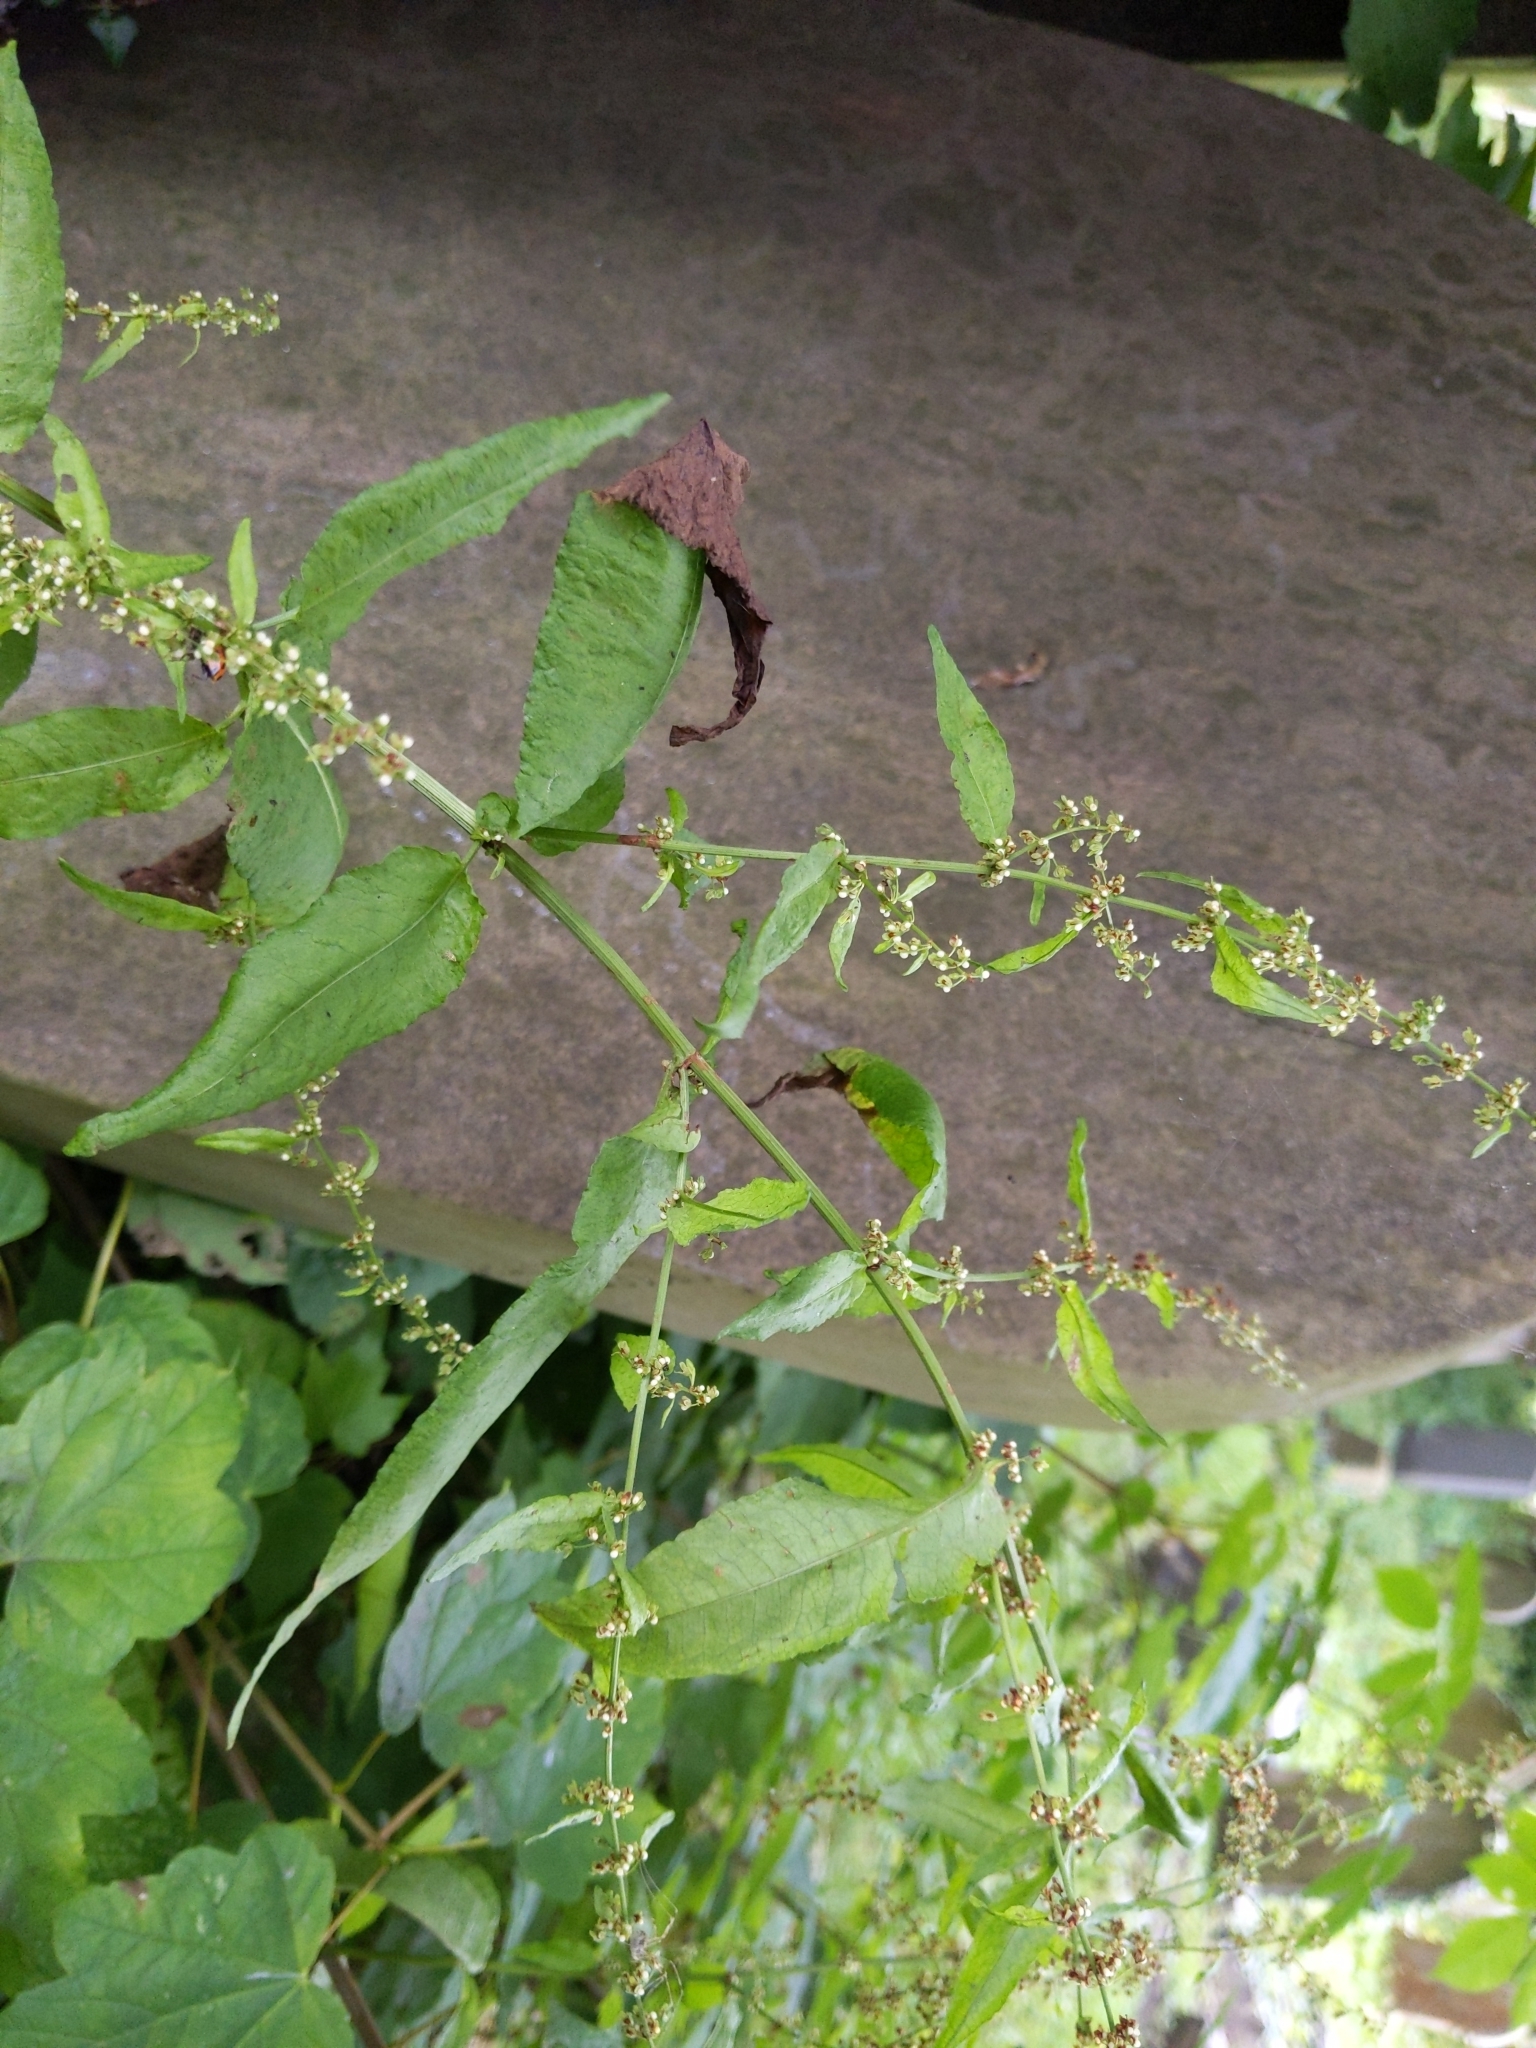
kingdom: Plantae
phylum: Tracheophyta
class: Magnoliopsida
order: Caryophyllales
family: Polygonaceae
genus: Rumex
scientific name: Rumex sanguineus
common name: Wood dock
